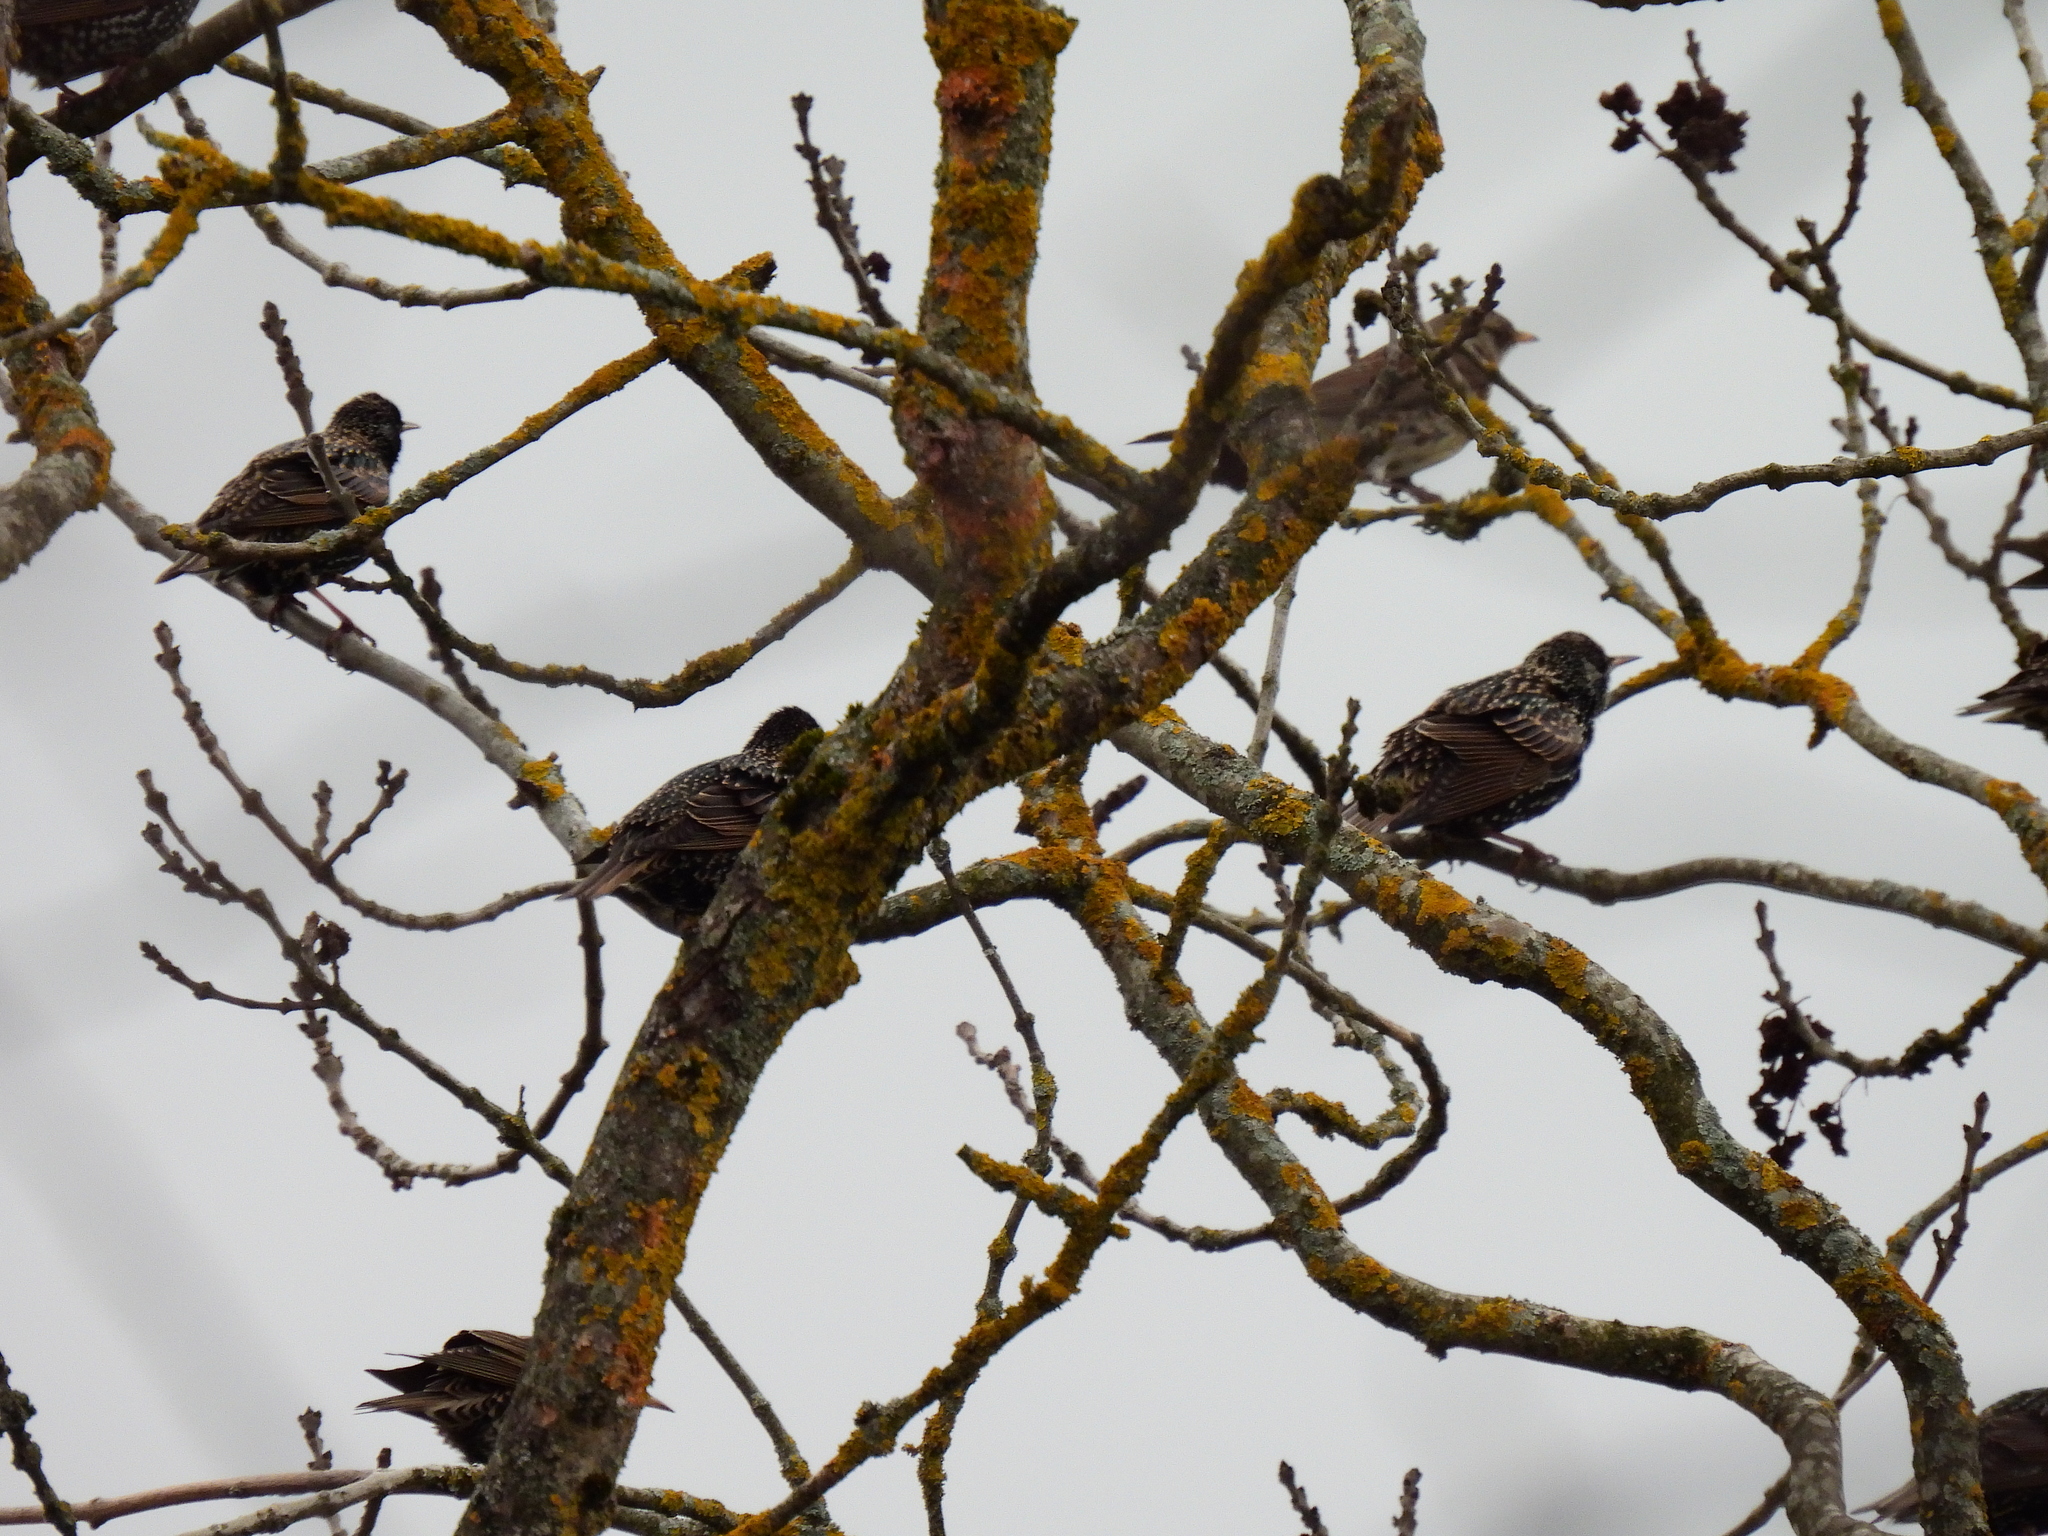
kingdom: Animalia
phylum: Chordata
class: Aves
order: Passeriformes
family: Sturnidae
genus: Sturnus
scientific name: Sturnus vulgaris
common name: Common starling
